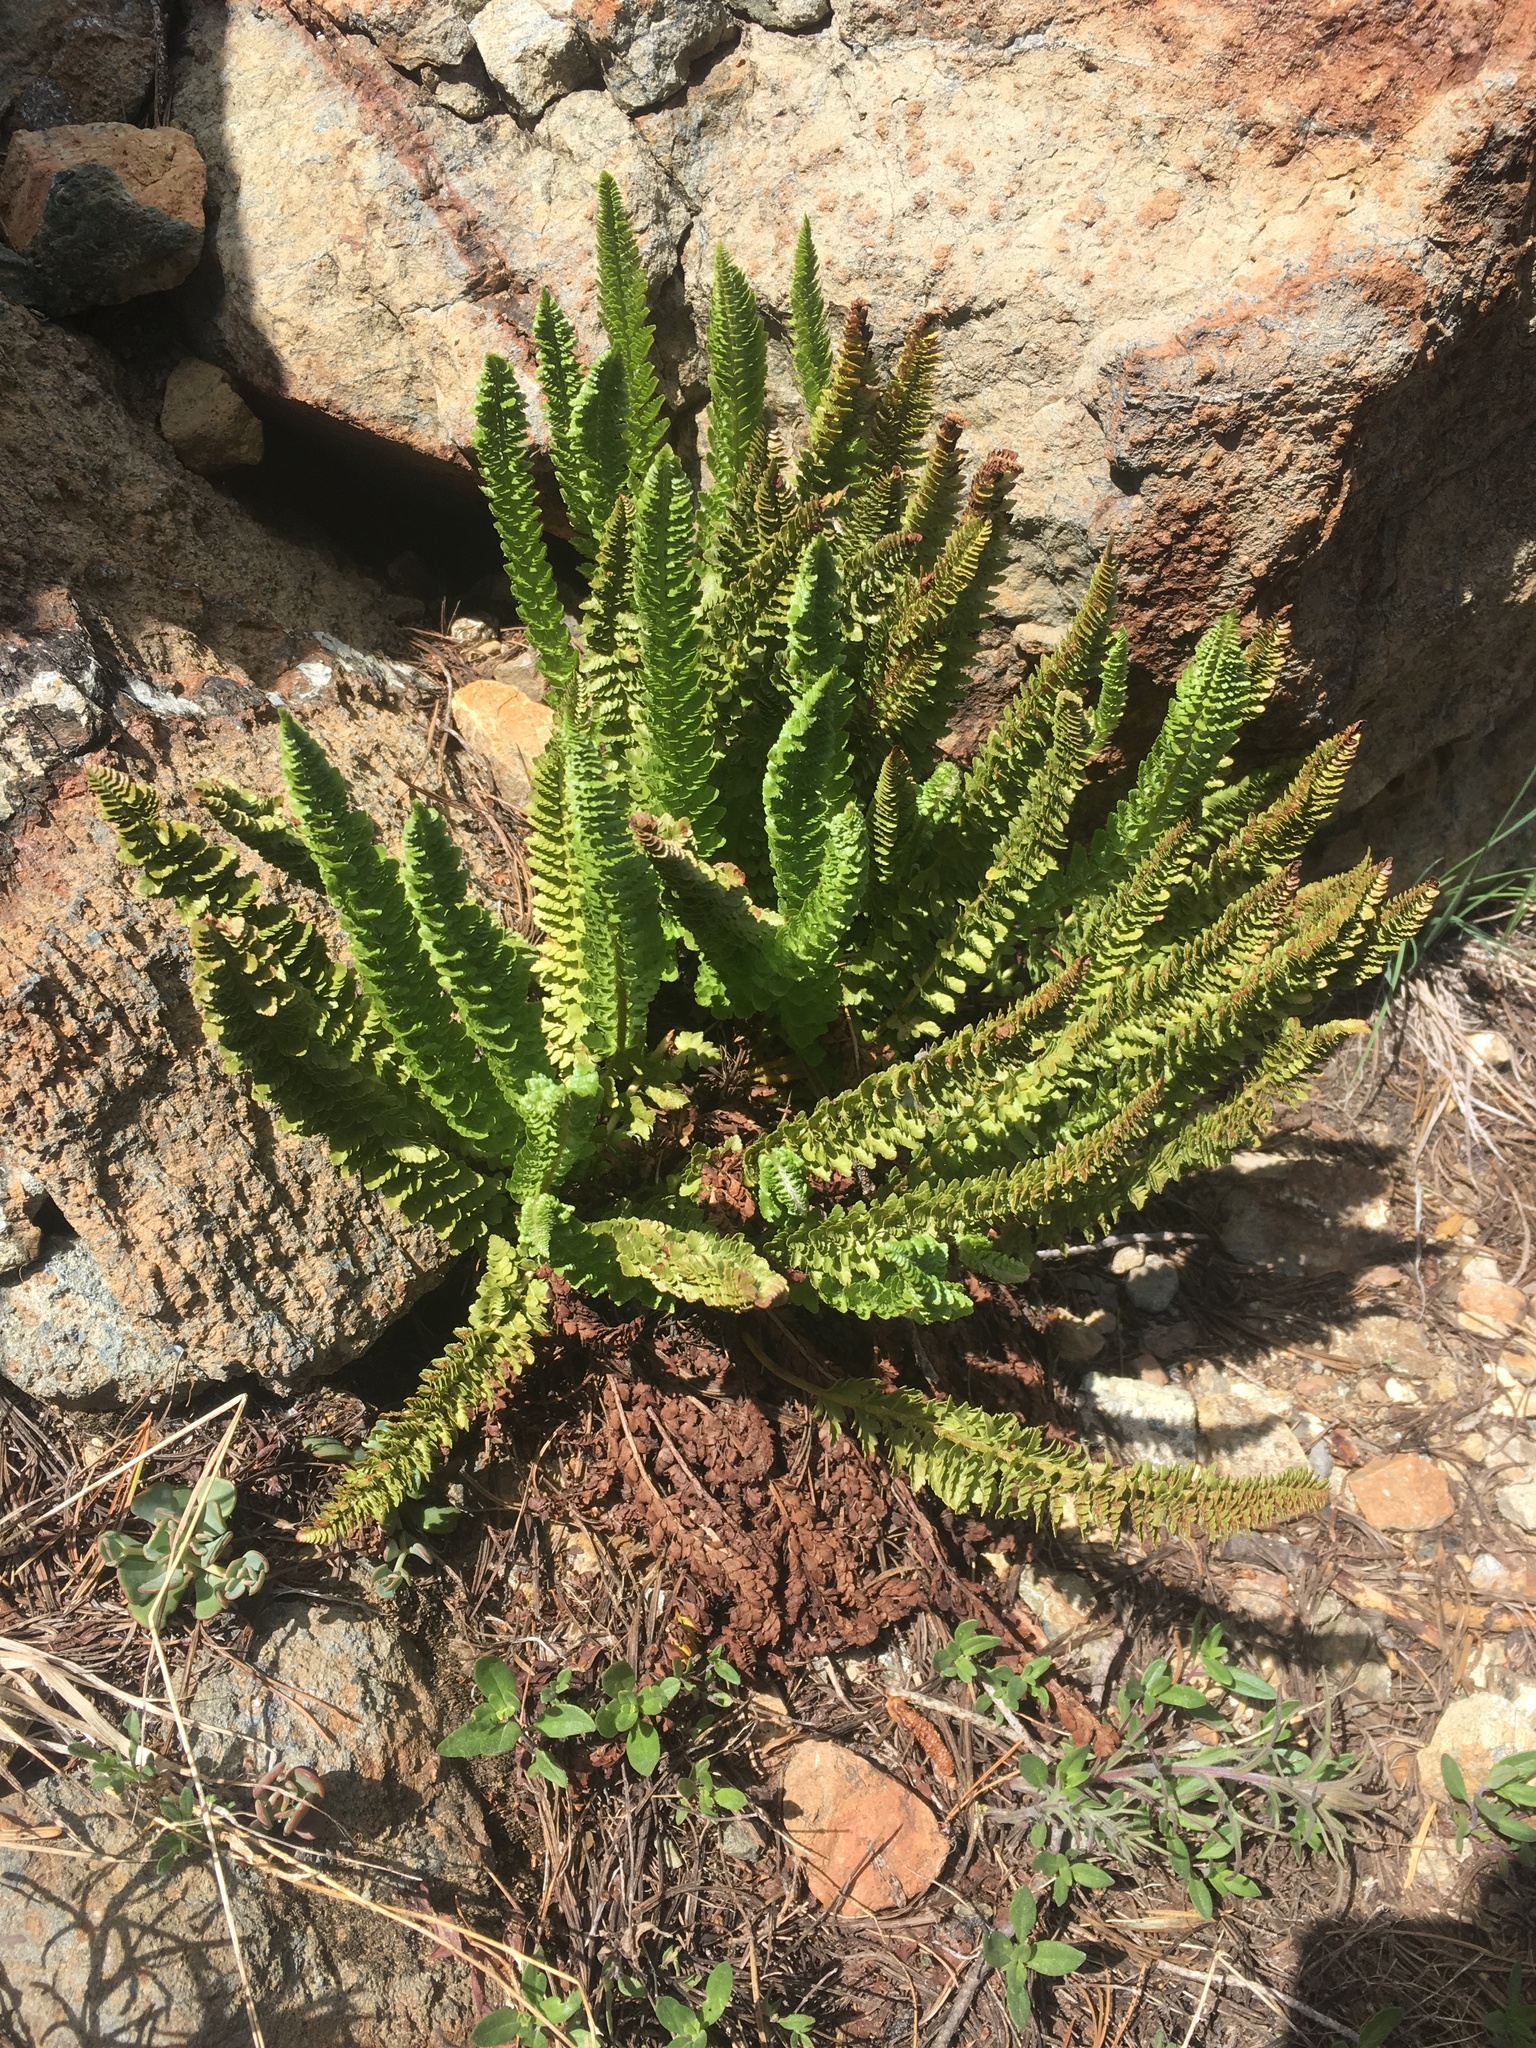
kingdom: Plantae
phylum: Tracheophyta
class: Polypodiopsida
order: Polypodiales
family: Dryopteridaceae
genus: Polystichum
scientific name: Polystichum lemmonii
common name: Lemmon's holly fern
